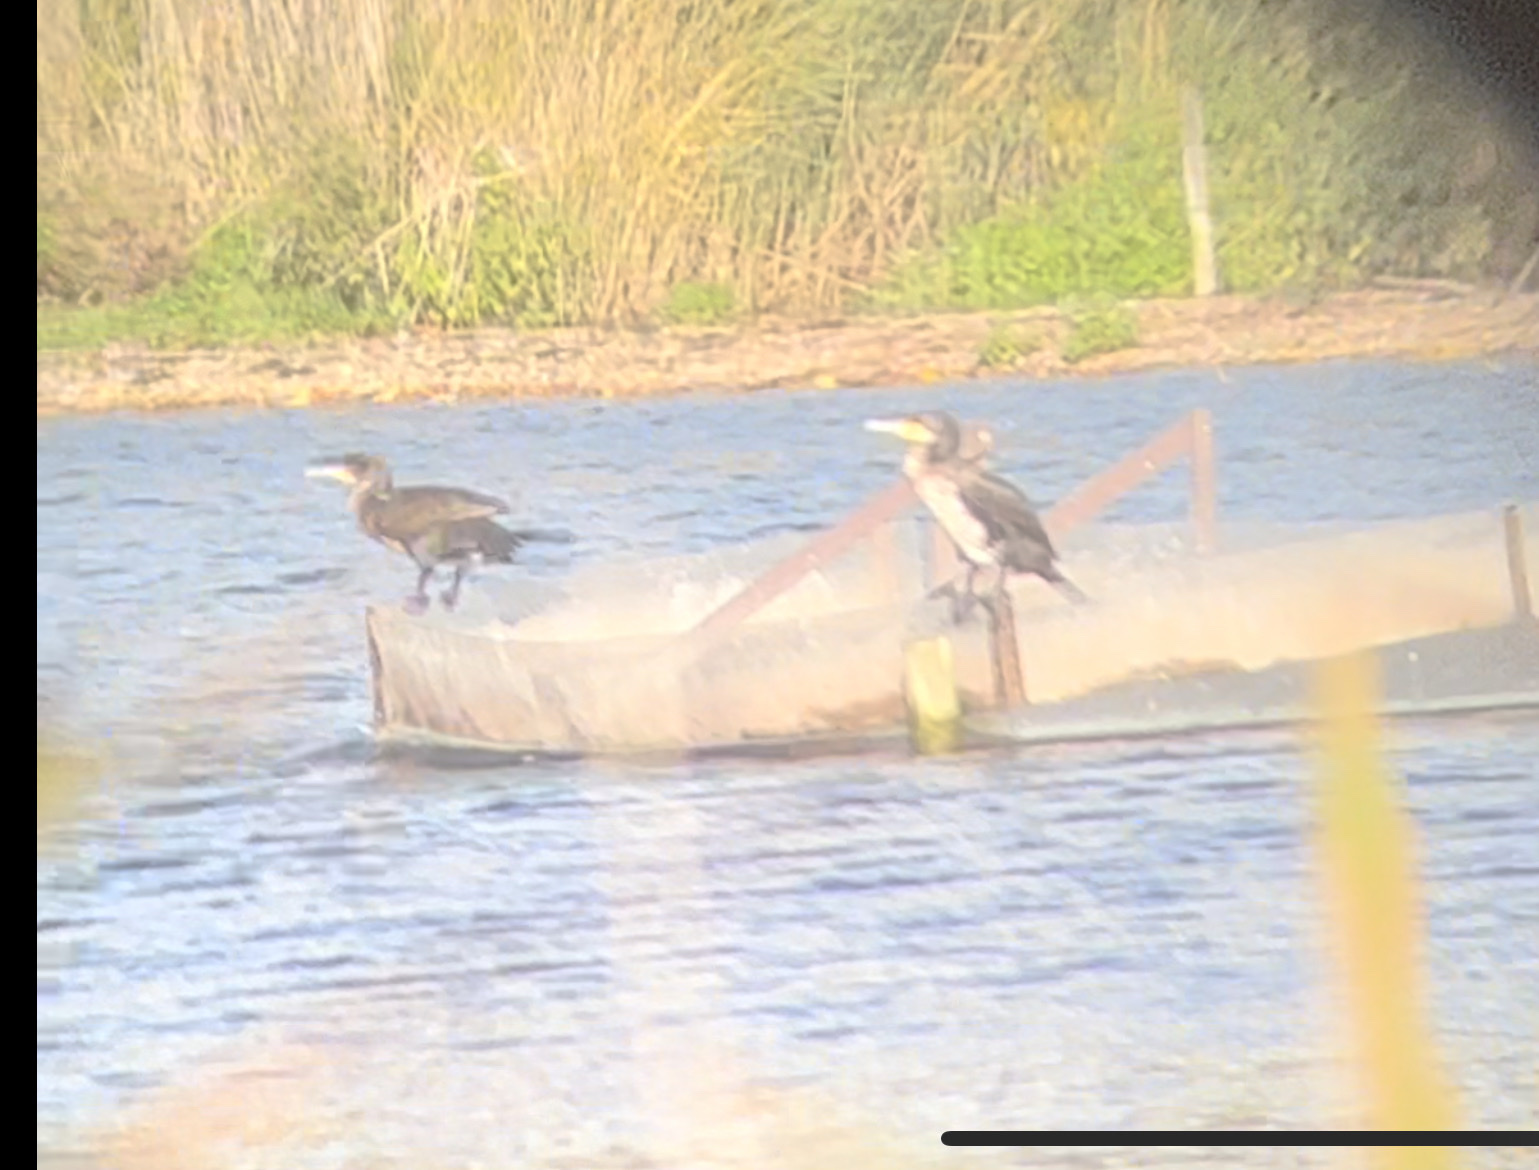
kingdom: Animalia
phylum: Chordata
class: Aves
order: Suliformes
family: Phalacrocoracidae
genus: Phalacrocorax
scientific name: Phalacrocorax carbo
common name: Great cormorant
